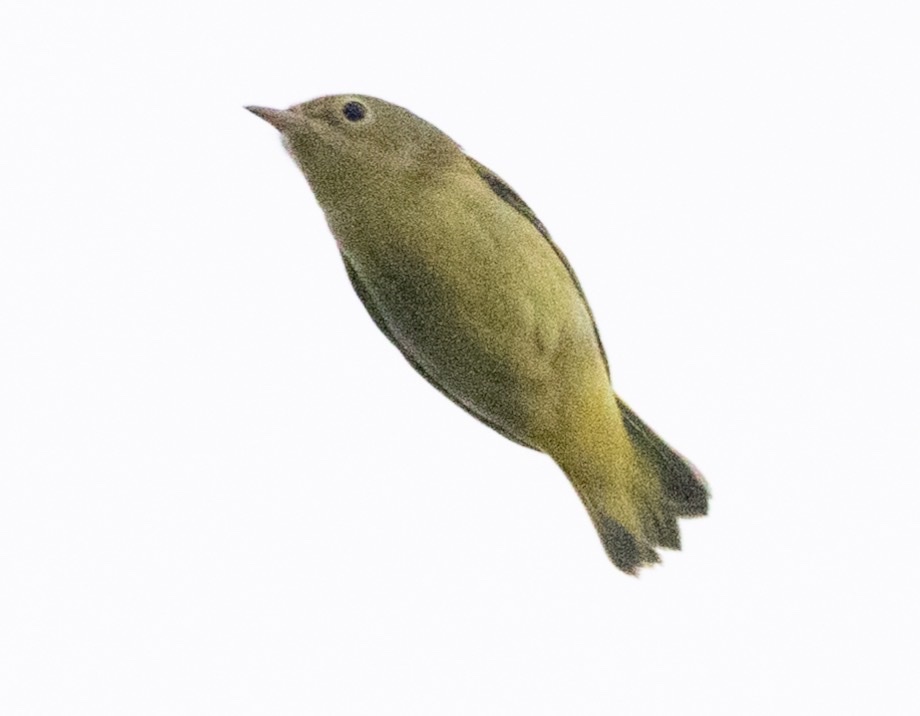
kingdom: Animalia
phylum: Chordata
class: Aves
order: Passeriformes
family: Parulidae
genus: Setophaga
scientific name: Setophaga petechia
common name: Yellow warbler
